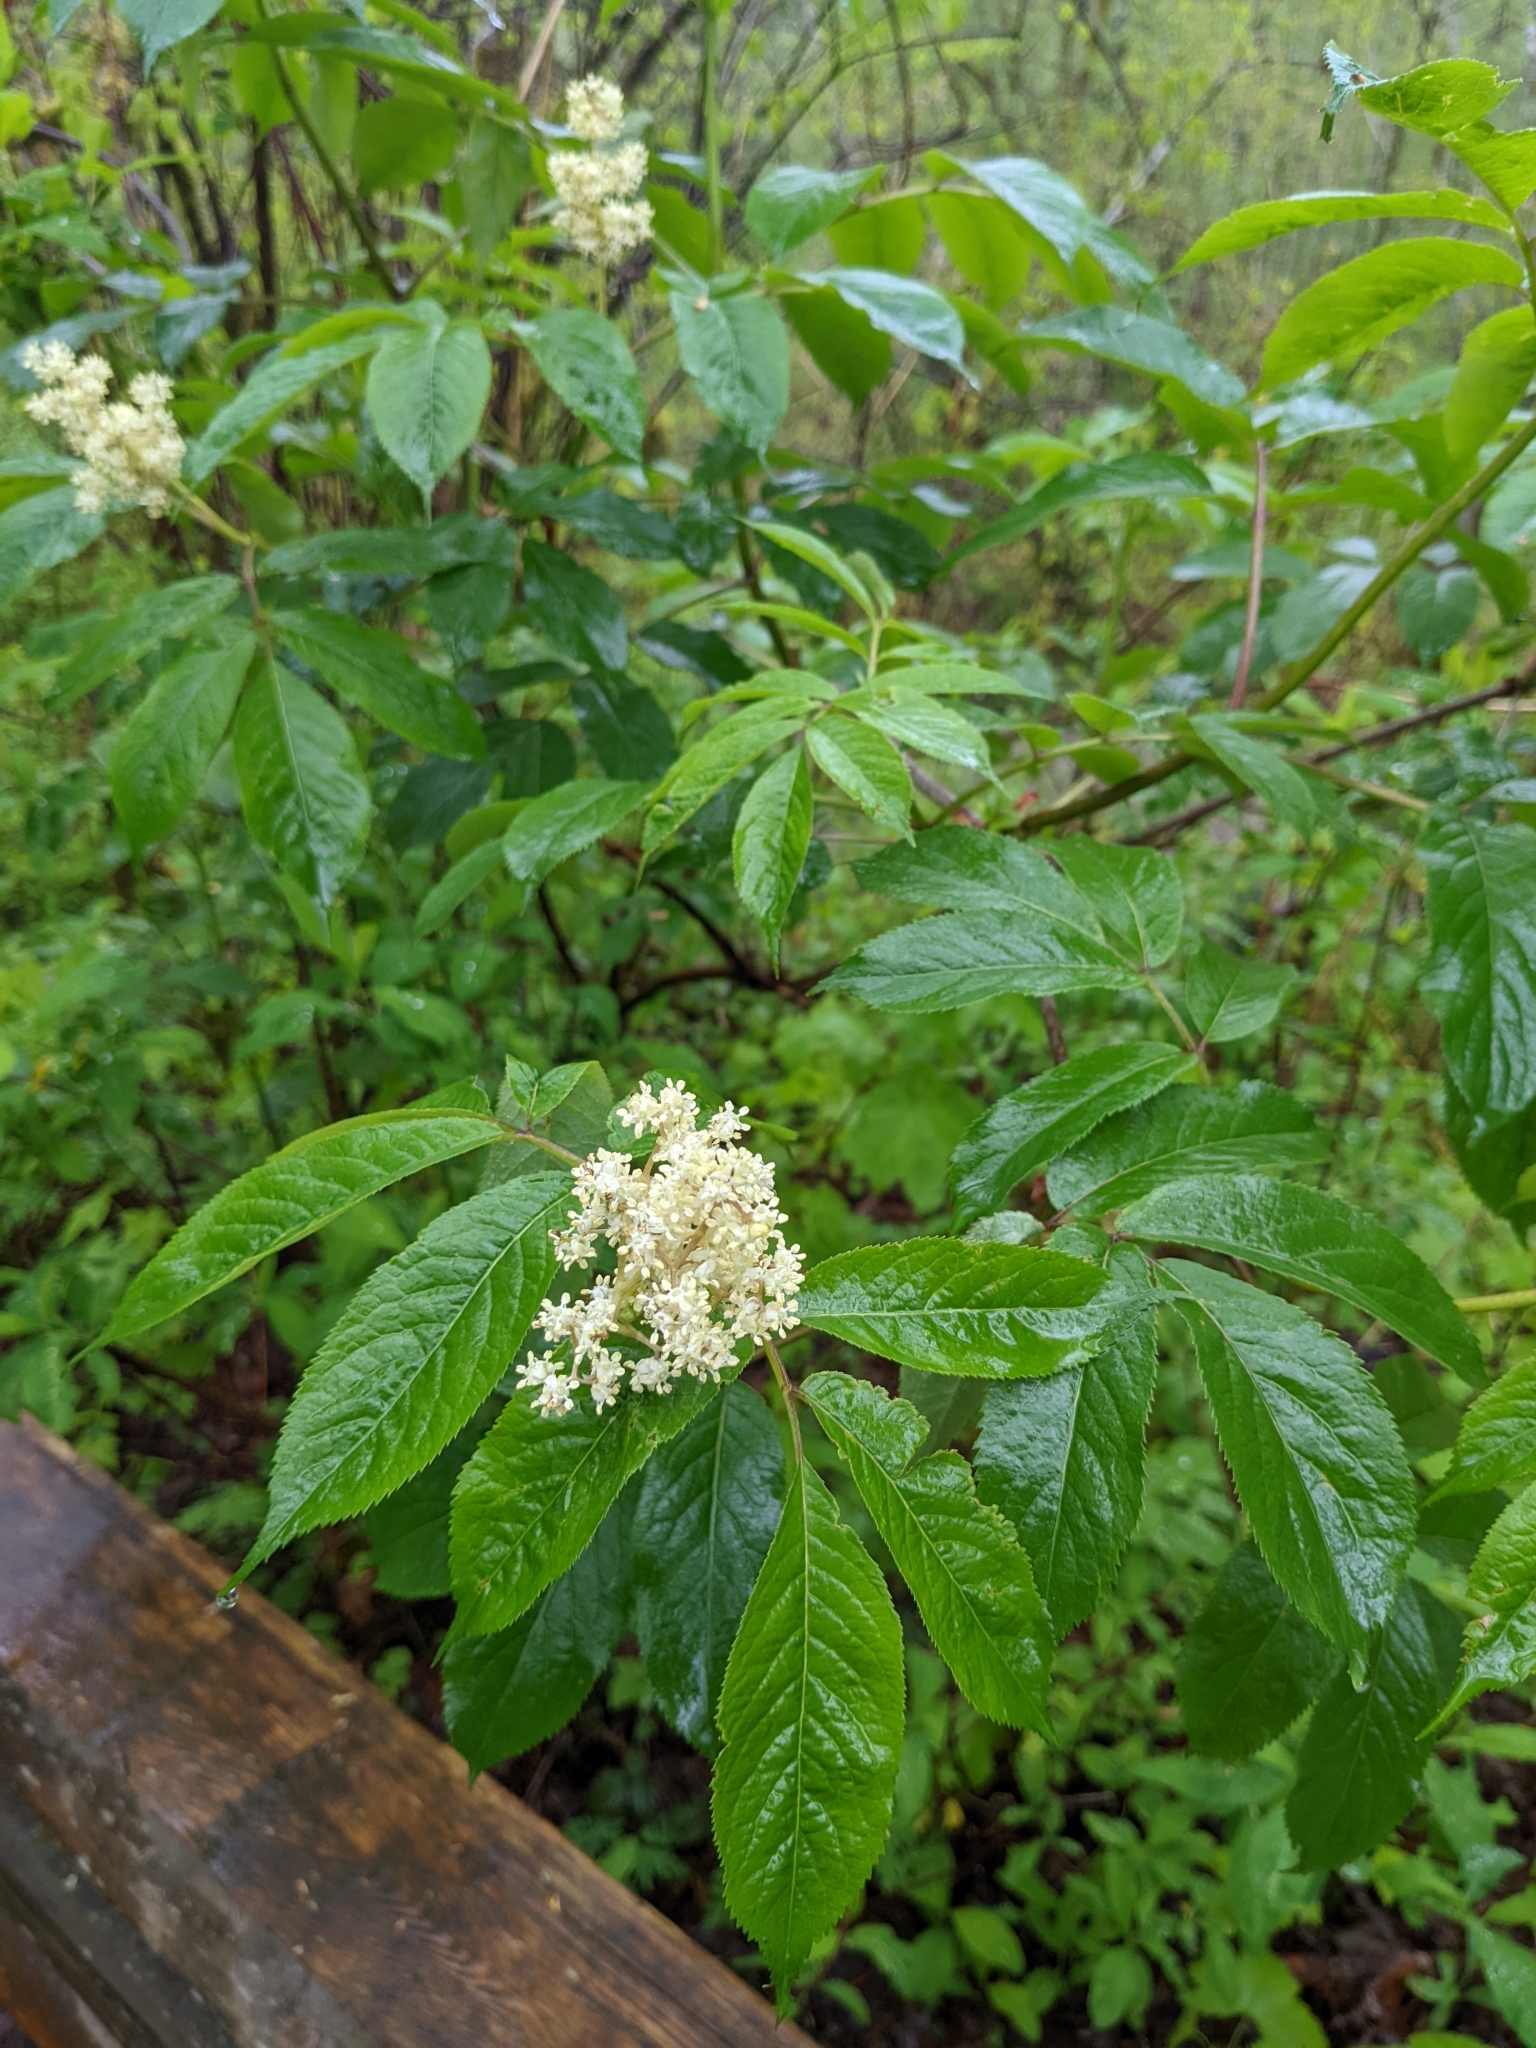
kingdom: Plantae
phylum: Tracheophyta
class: Magnoliopsida
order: Dipsacales
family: Viburnaceae
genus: Sambucus
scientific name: Sambucus racemosa
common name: Red-berried elder
